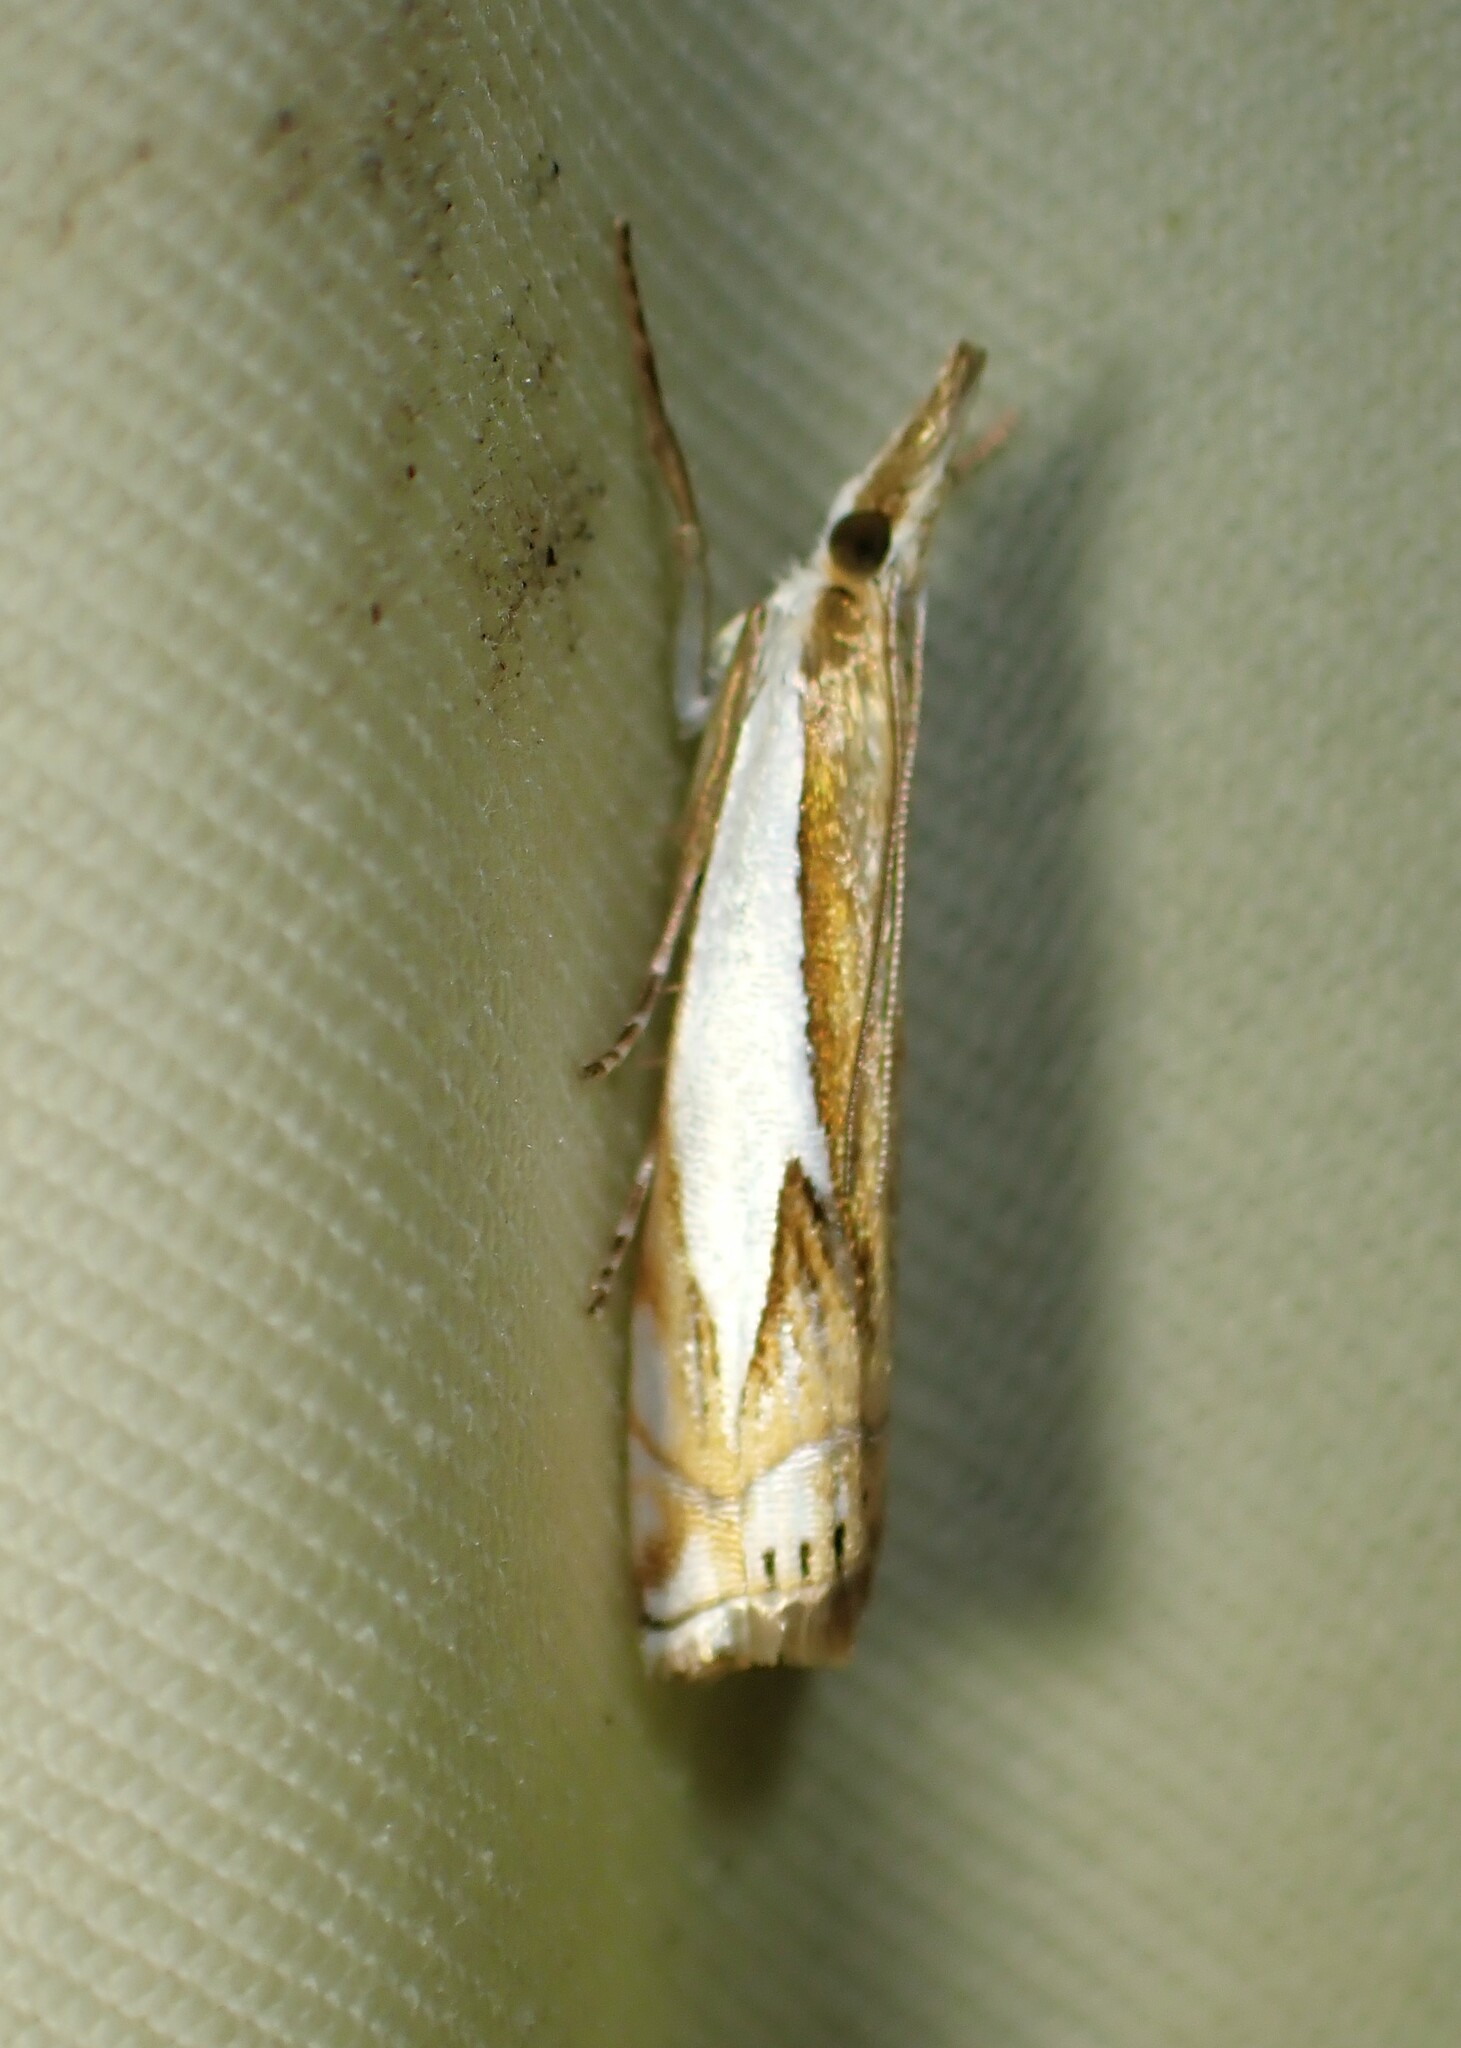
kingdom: Animalia
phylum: Arthropoda
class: Insecta
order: Lepidoptera
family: Crambidae
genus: Crambus
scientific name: Crambus bidens
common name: Forked grass-veneer
